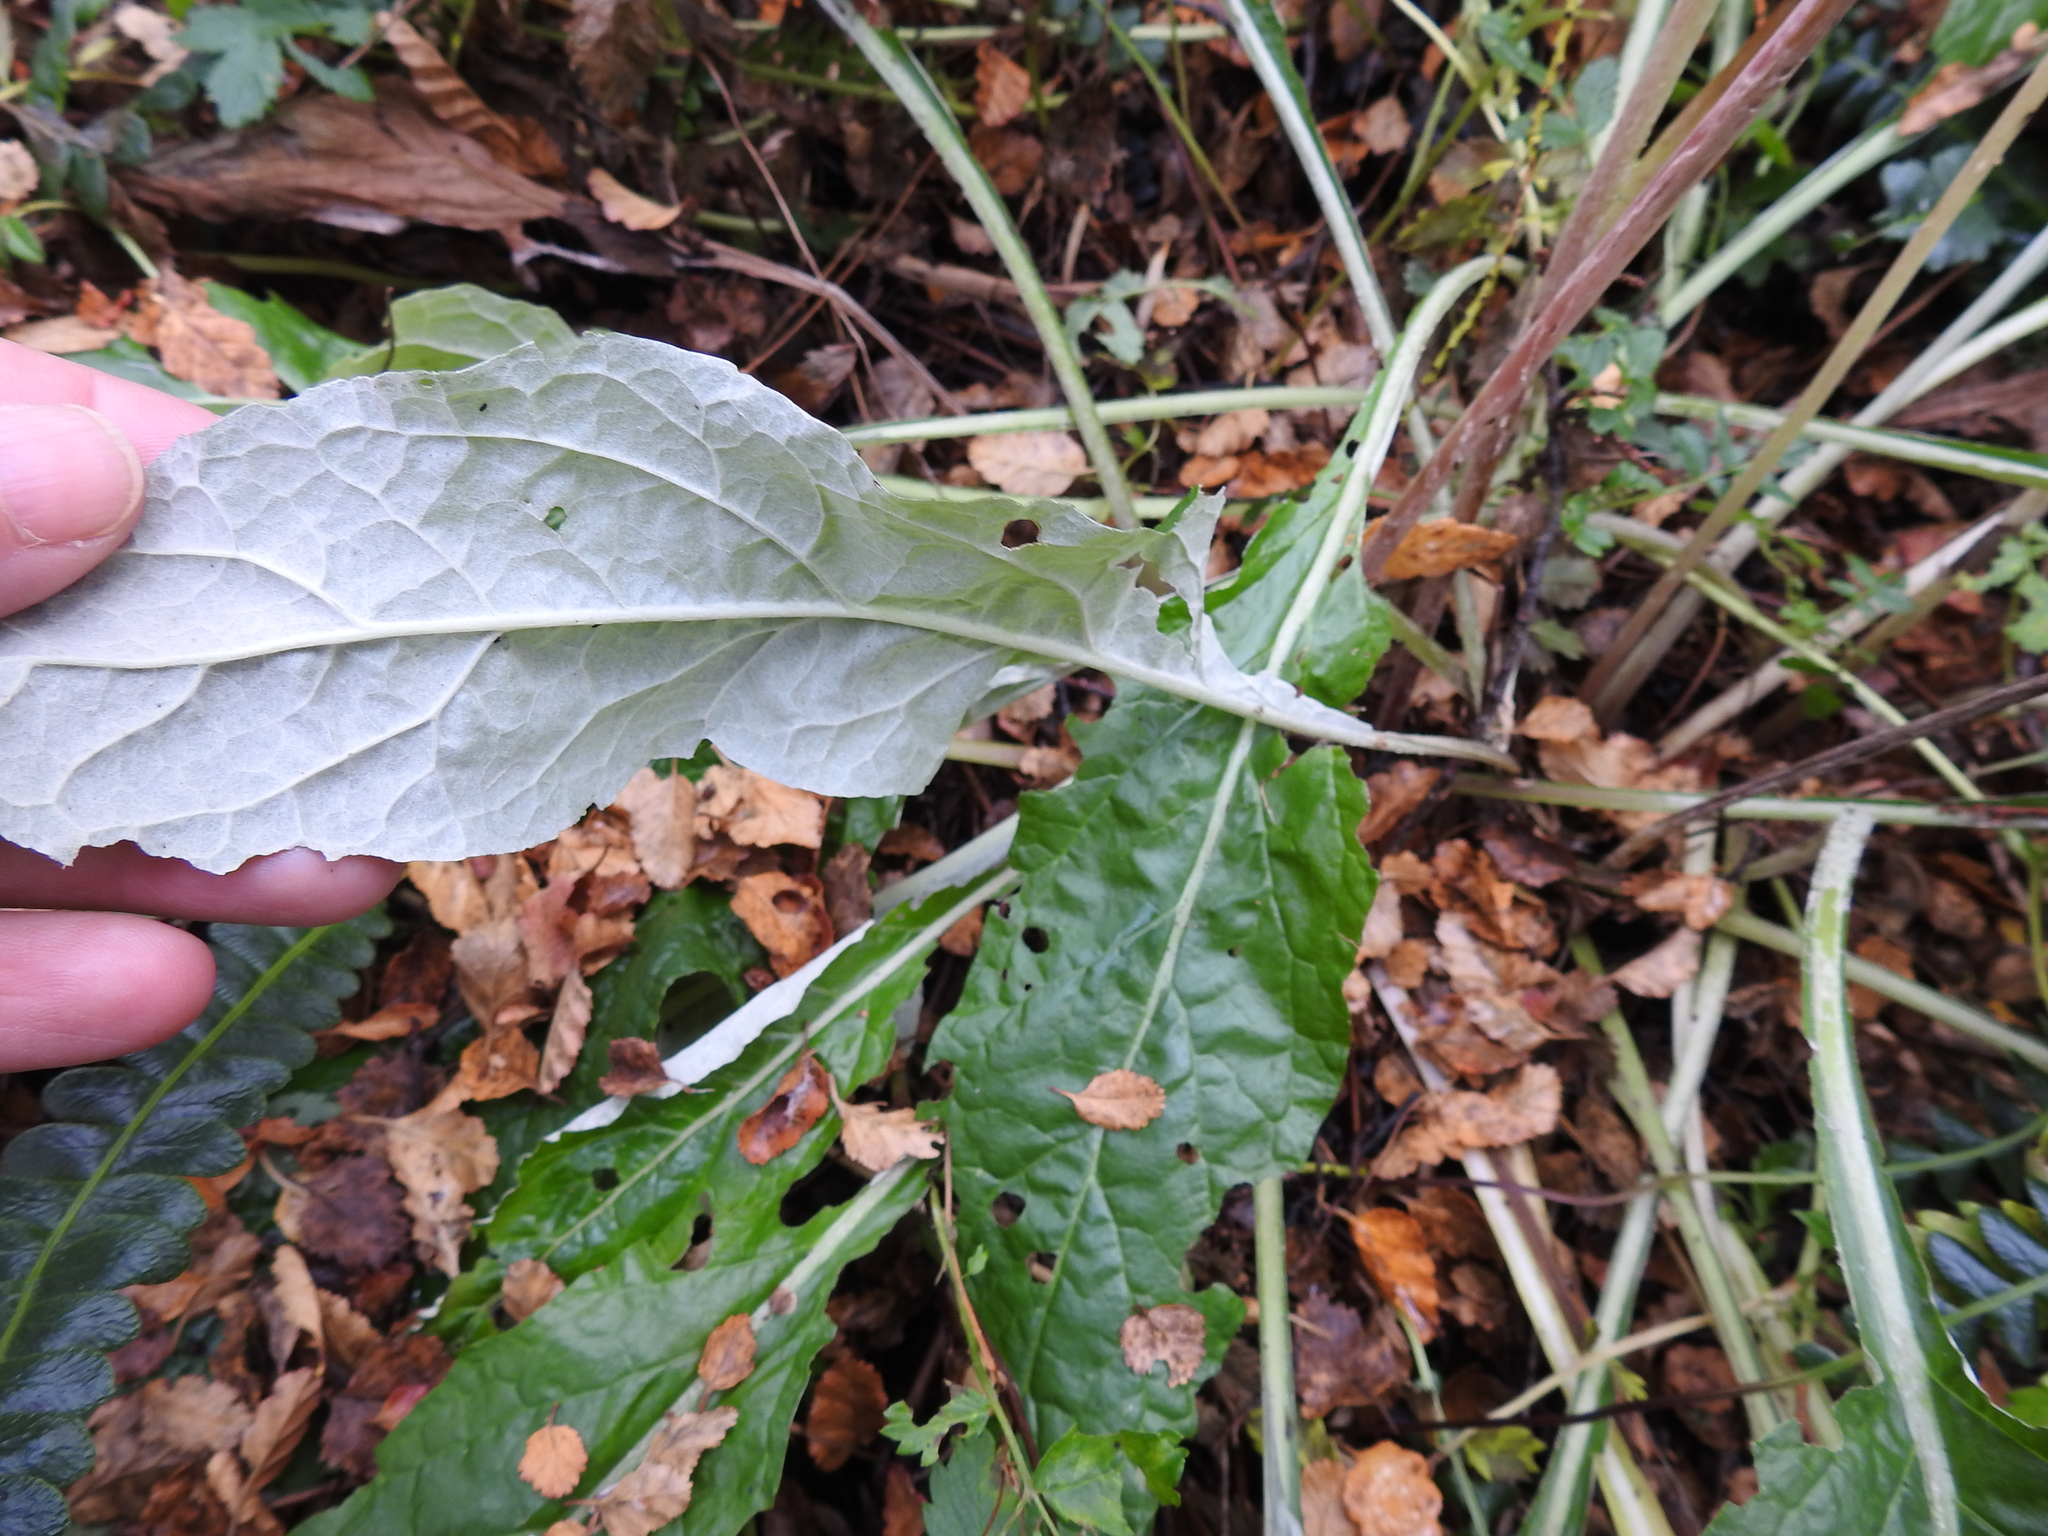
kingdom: Plantae
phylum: Tracheophyta
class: Magnoliopsida
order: Asterales
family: Asteraceae
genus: Adenocaulon
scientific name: Adenocaulon chilense
